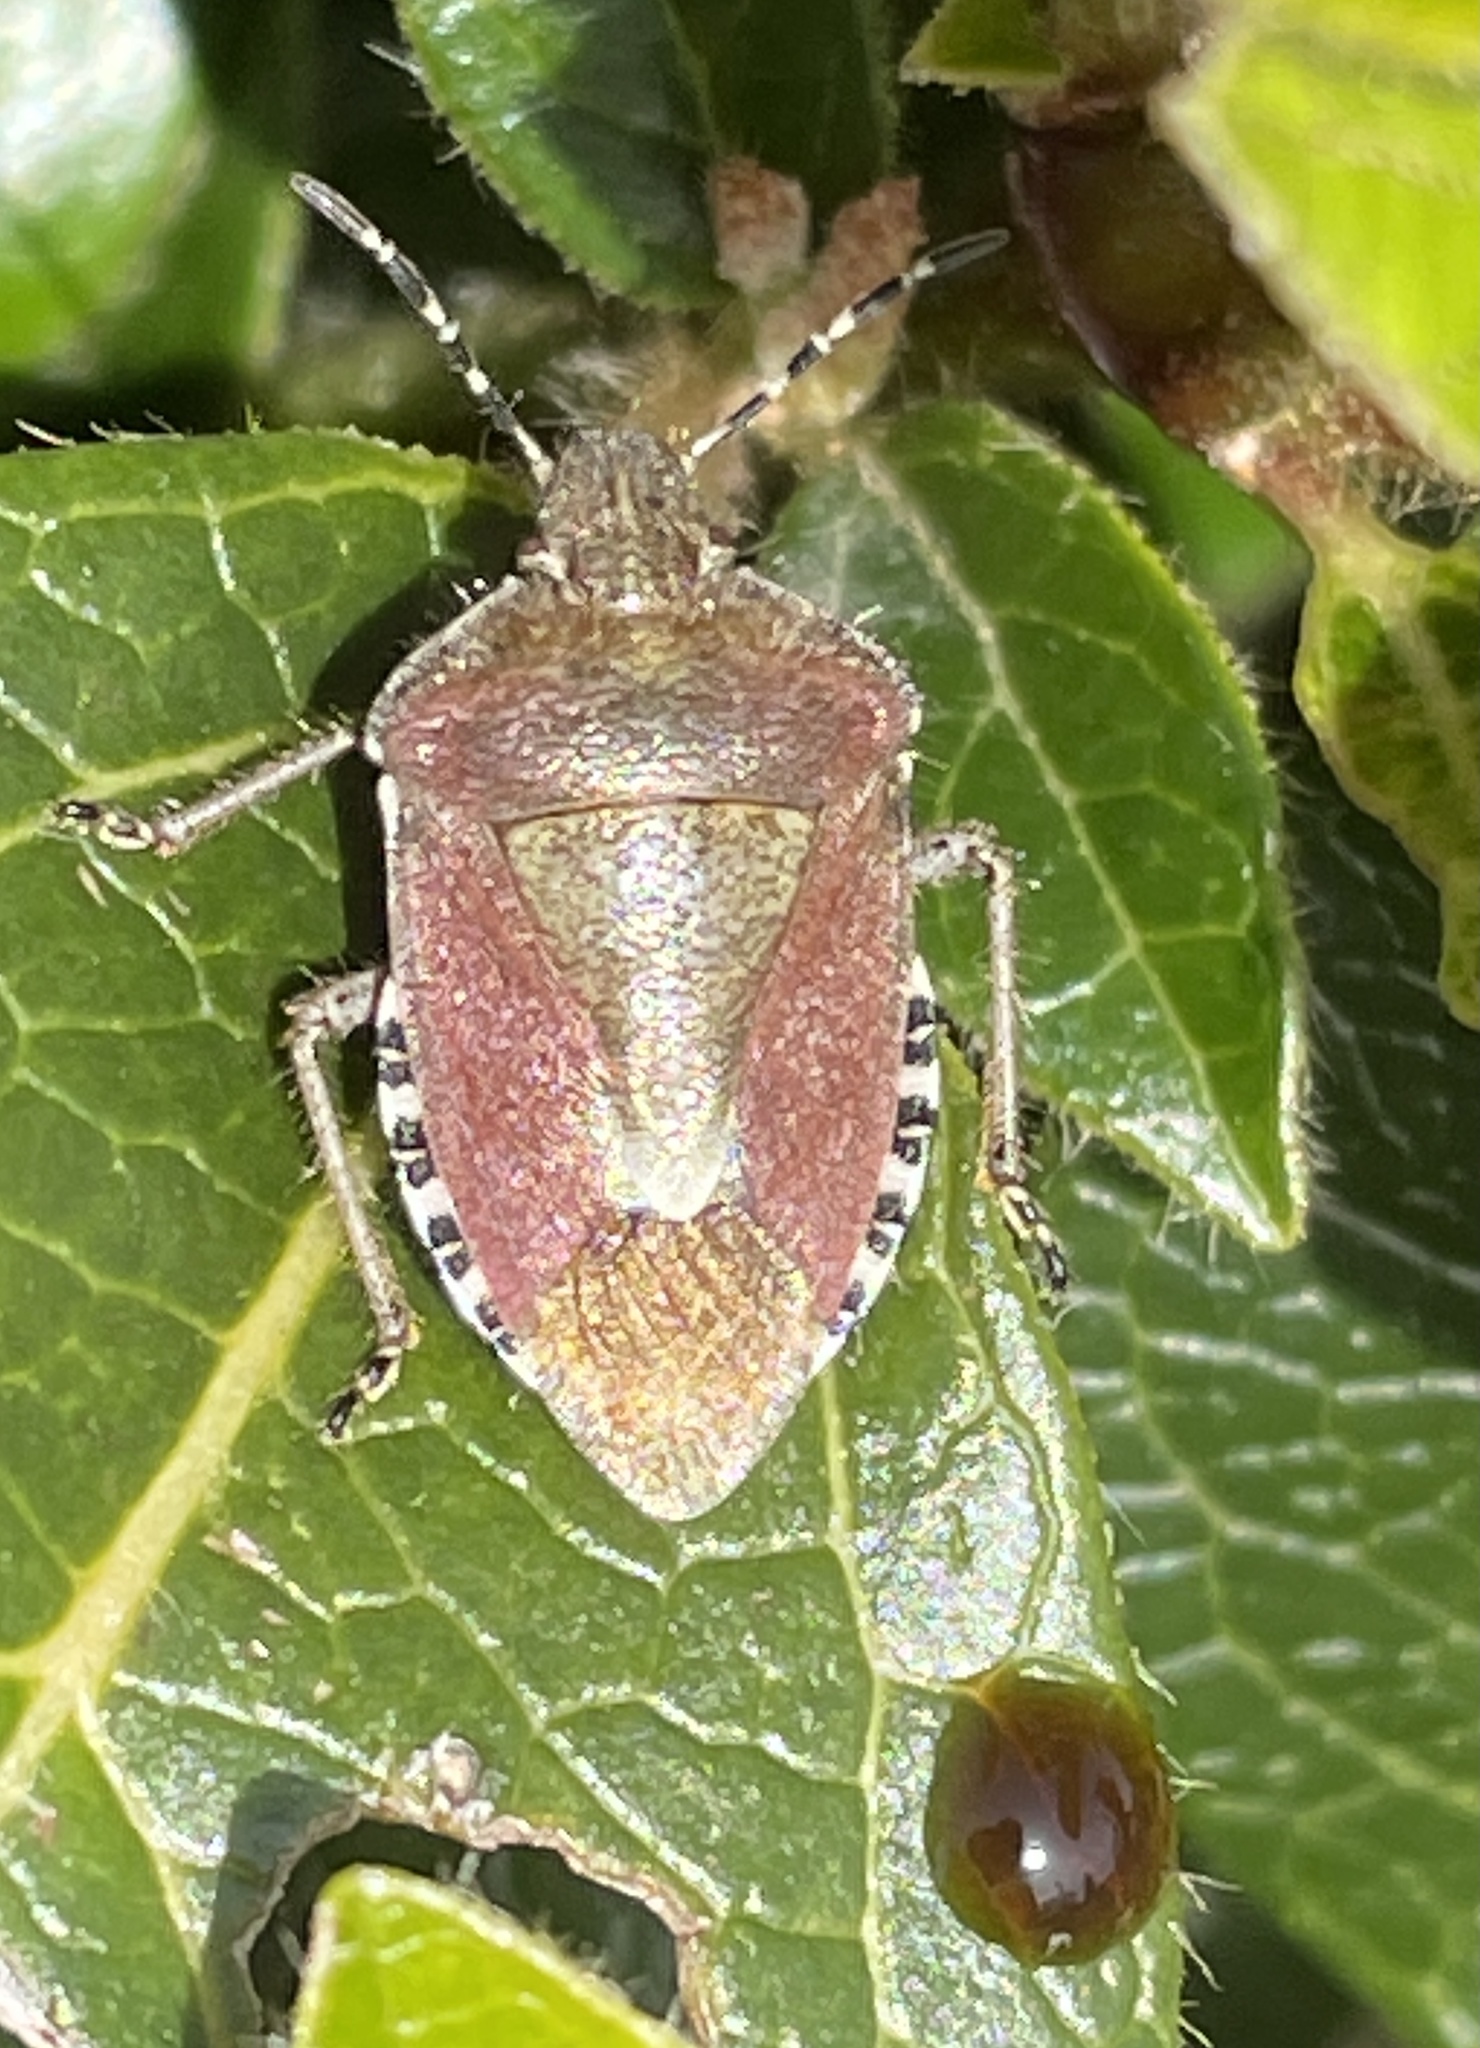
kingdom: Animalia
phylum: Arthropoda
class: Insecta
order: Hemiptera
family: Pentatomidae
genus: Dolycoris
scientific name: Dolycoris baccarum
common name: Sloe bug
